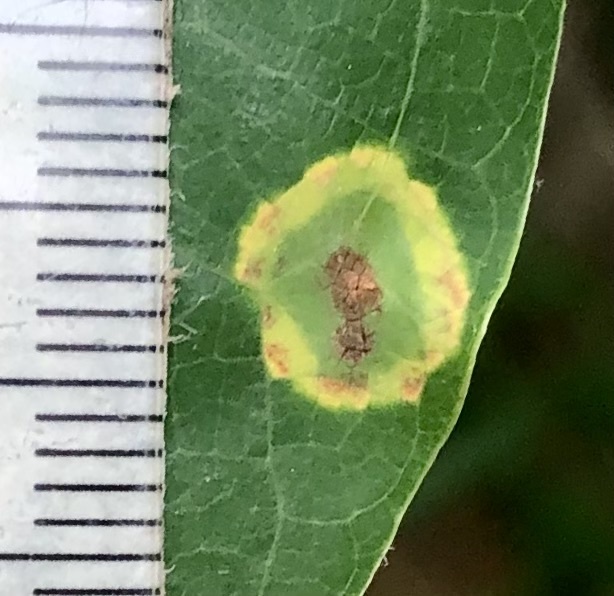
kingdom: Animalia
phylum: Arthropoda
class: Insecta
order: Diptera
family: Cecidomyiidae
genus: Resseliella
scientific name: Resseliella liriodendri
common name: Tulip tree leaf spot gall midge
